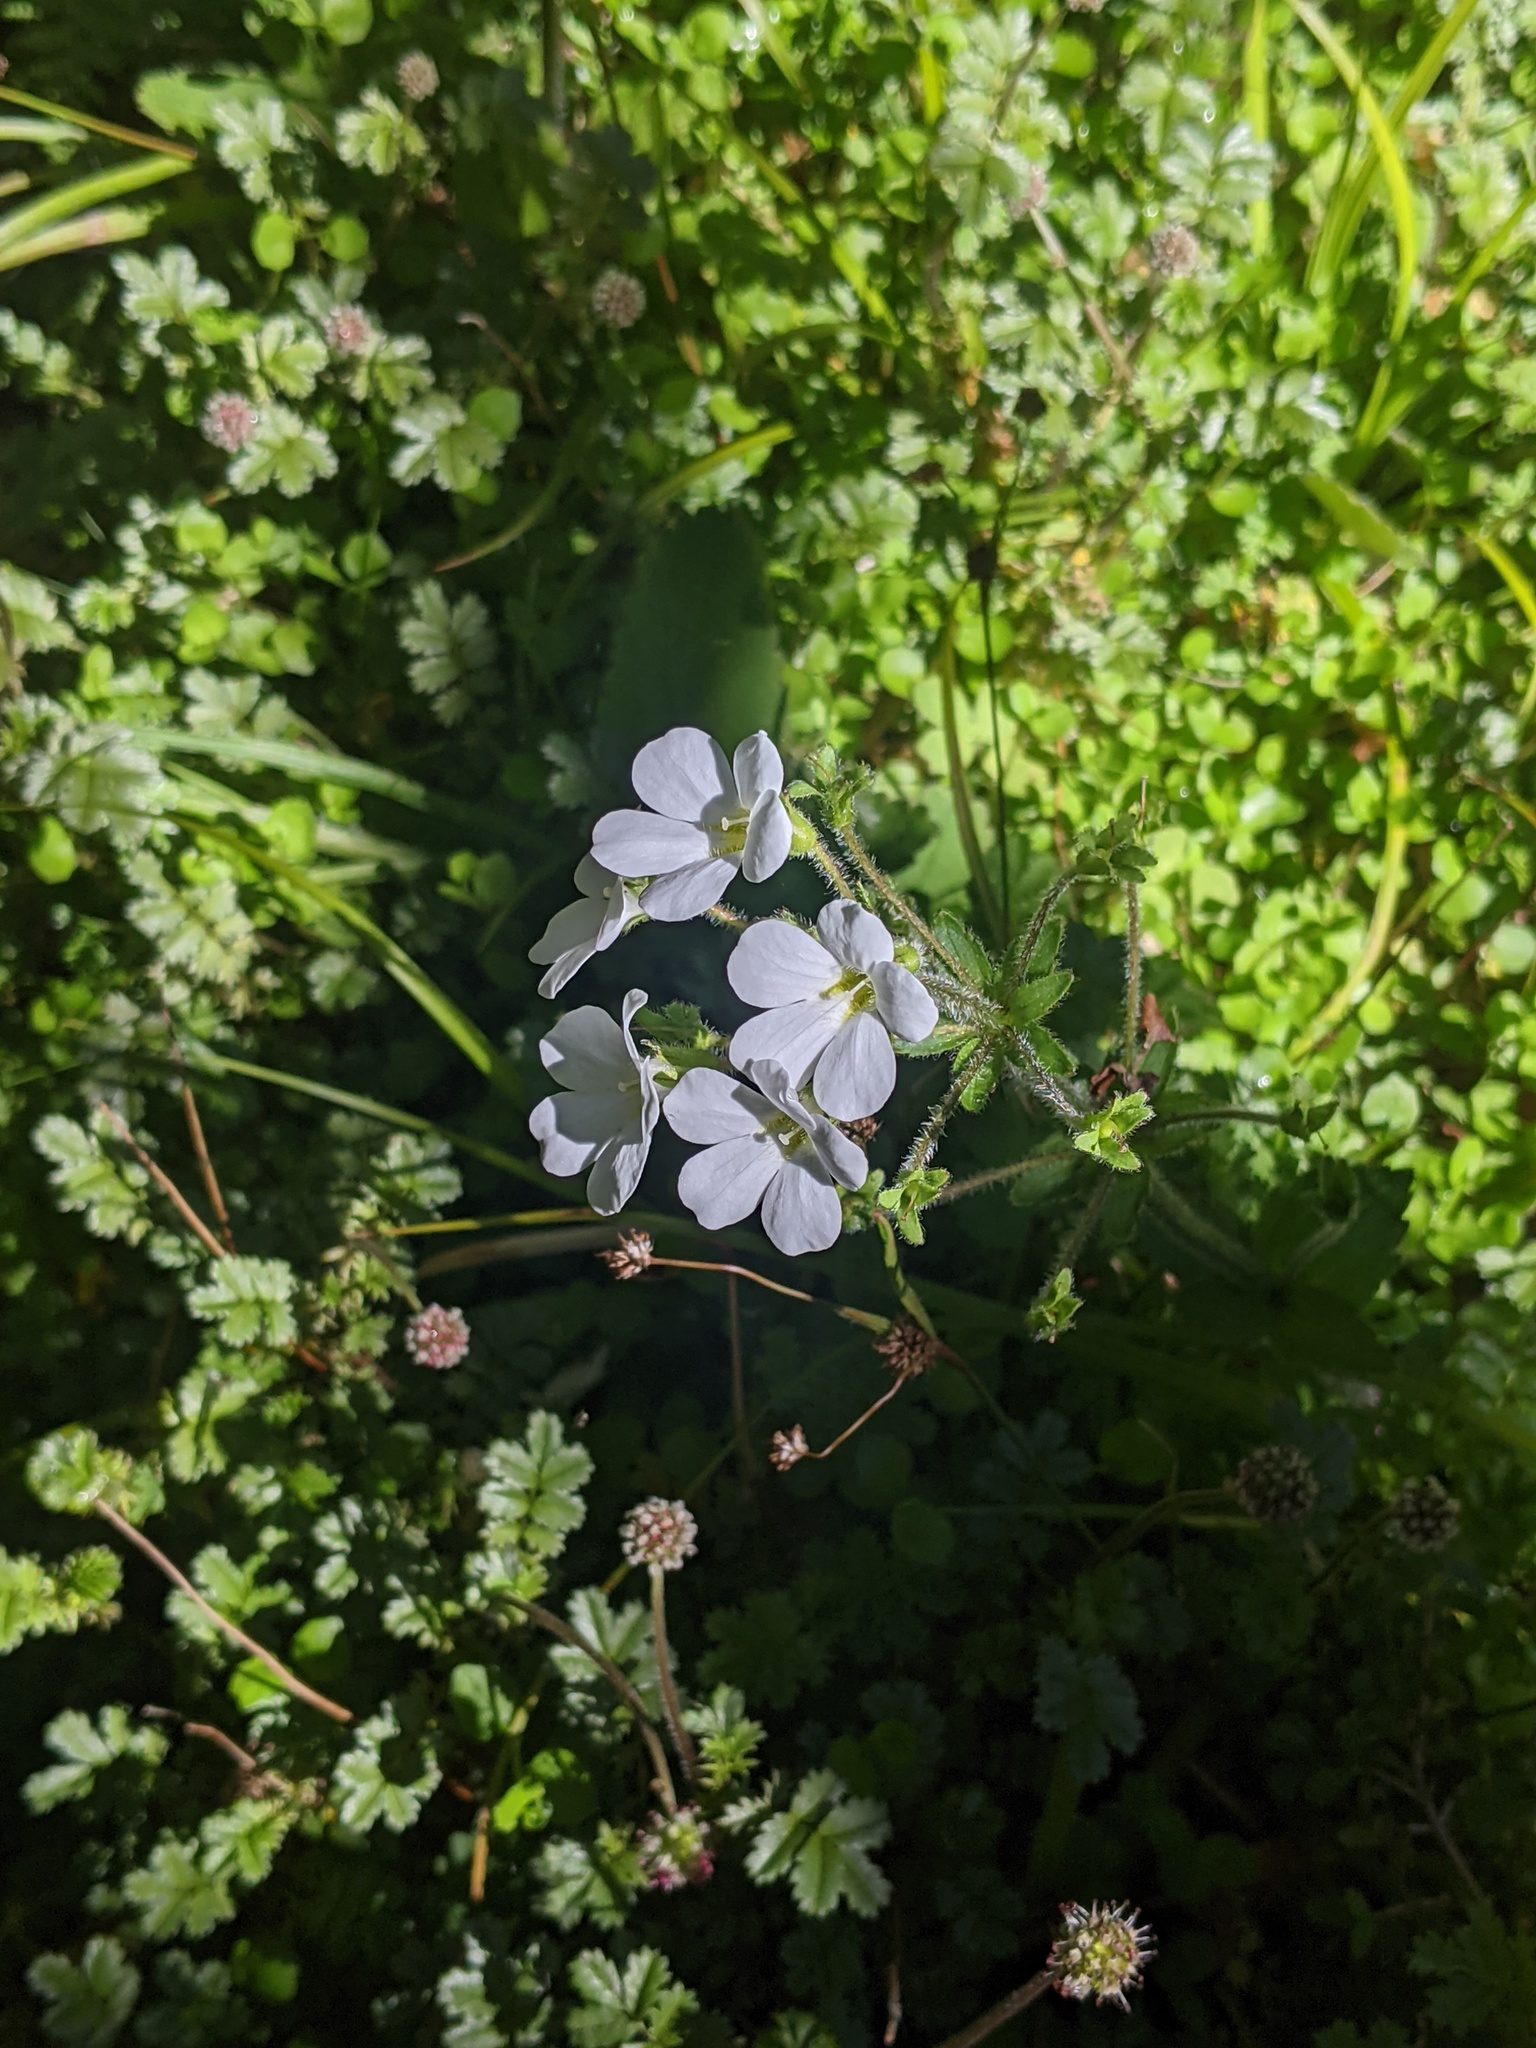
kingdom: Plantae
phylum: Tracheophyta
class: Magnoliopsida
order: Lamiales
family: Plantaginaceae
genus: Ourisia
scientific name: Ourisia crosbyi
